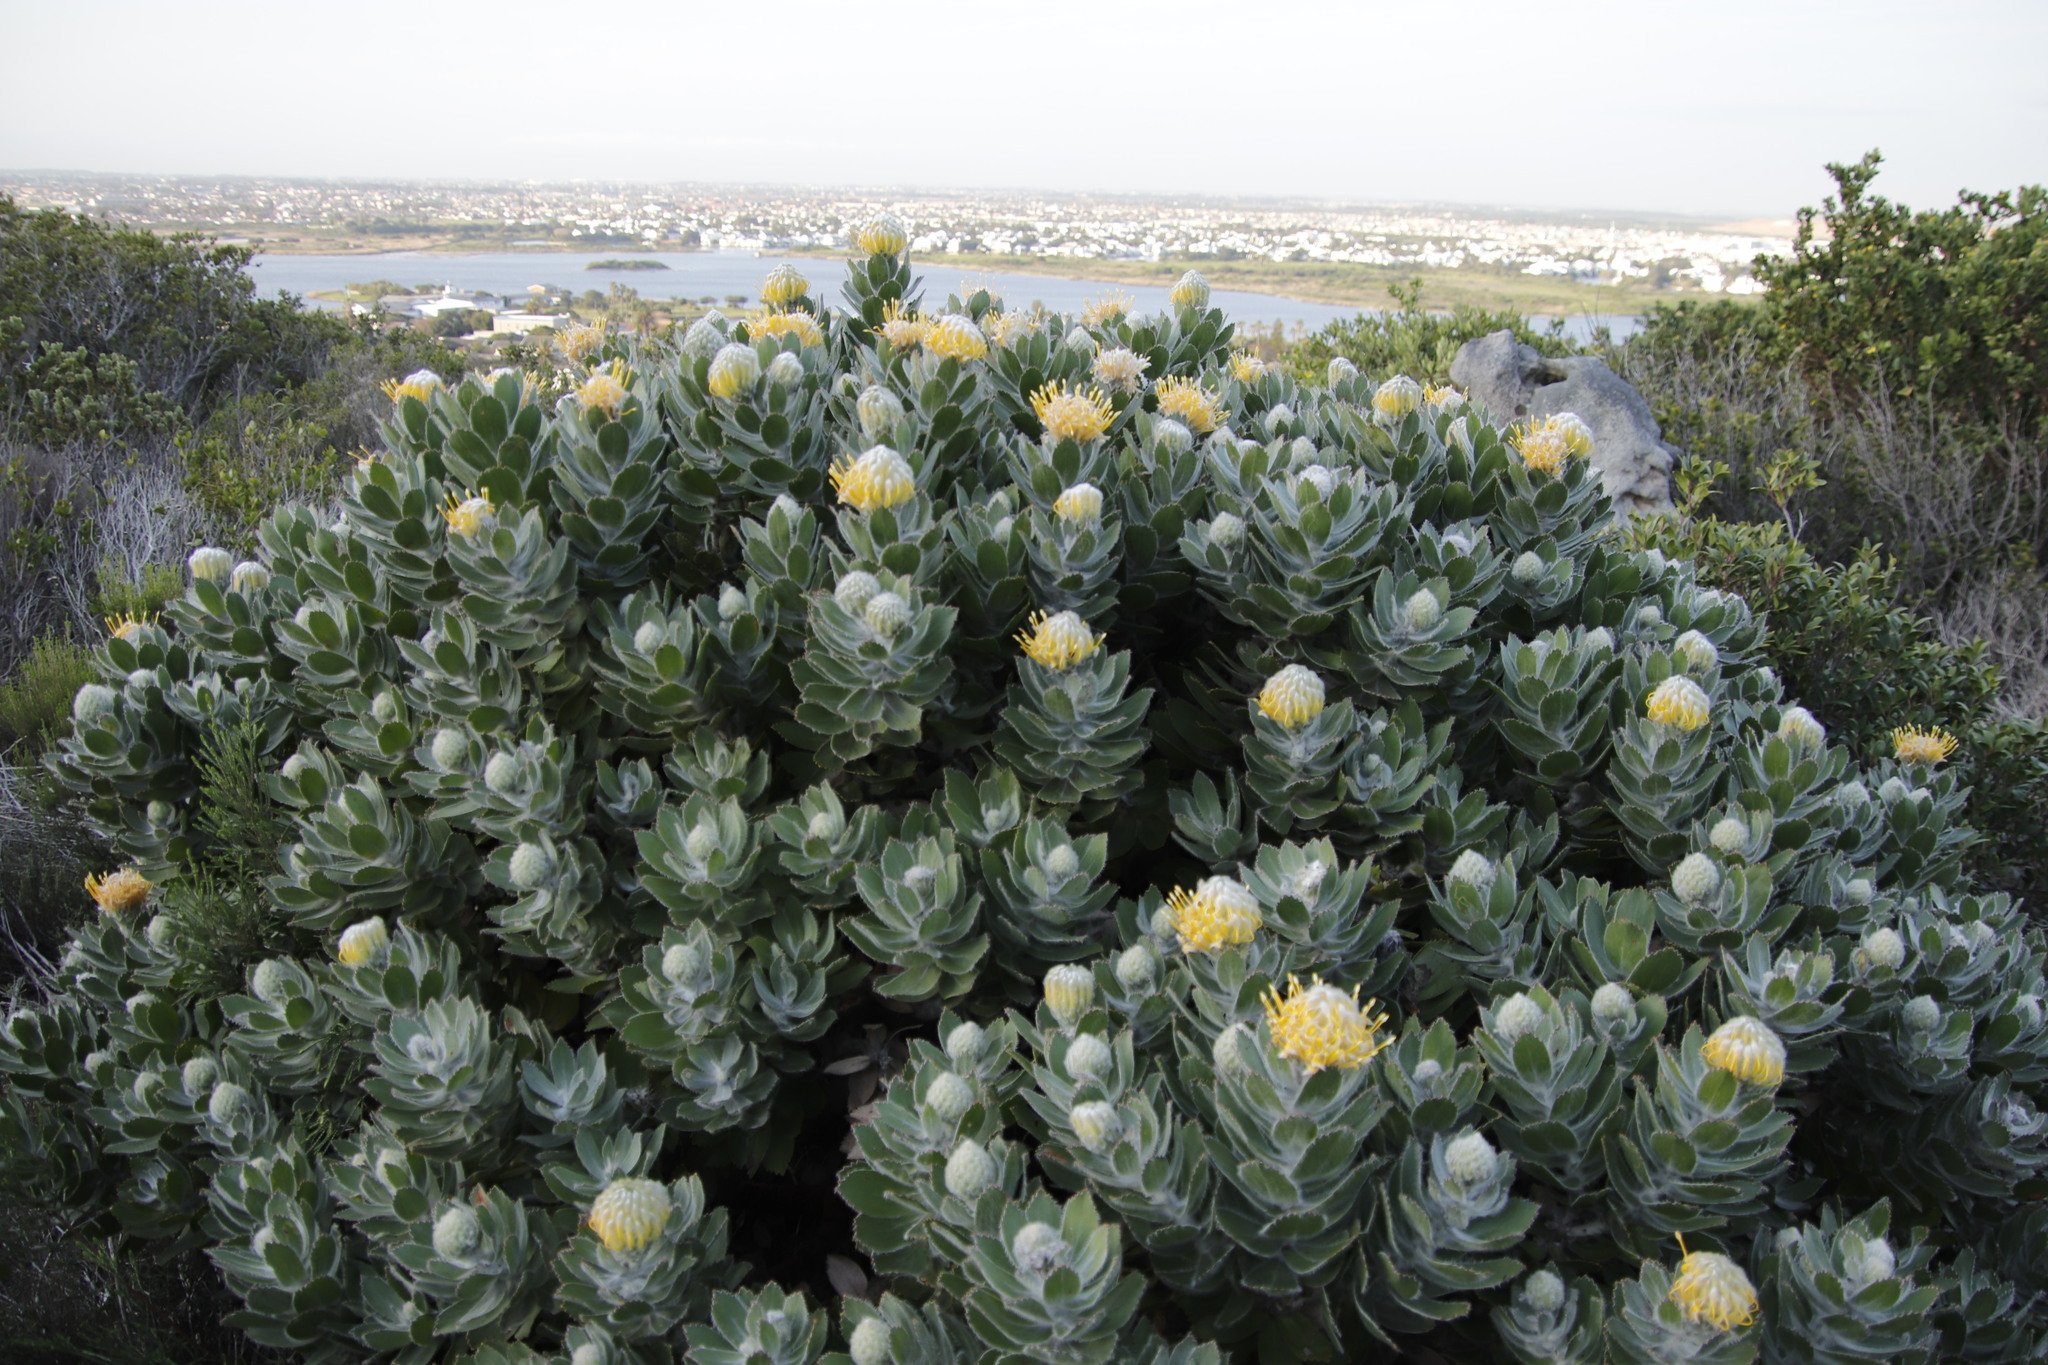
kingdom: Plantae
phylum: Tracheophyta
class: Magnoliopsida
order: Proteales
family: Proteaceae
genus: Leucospermum
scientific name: Leucospermum conocarpodendron
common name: Tree pincushion
